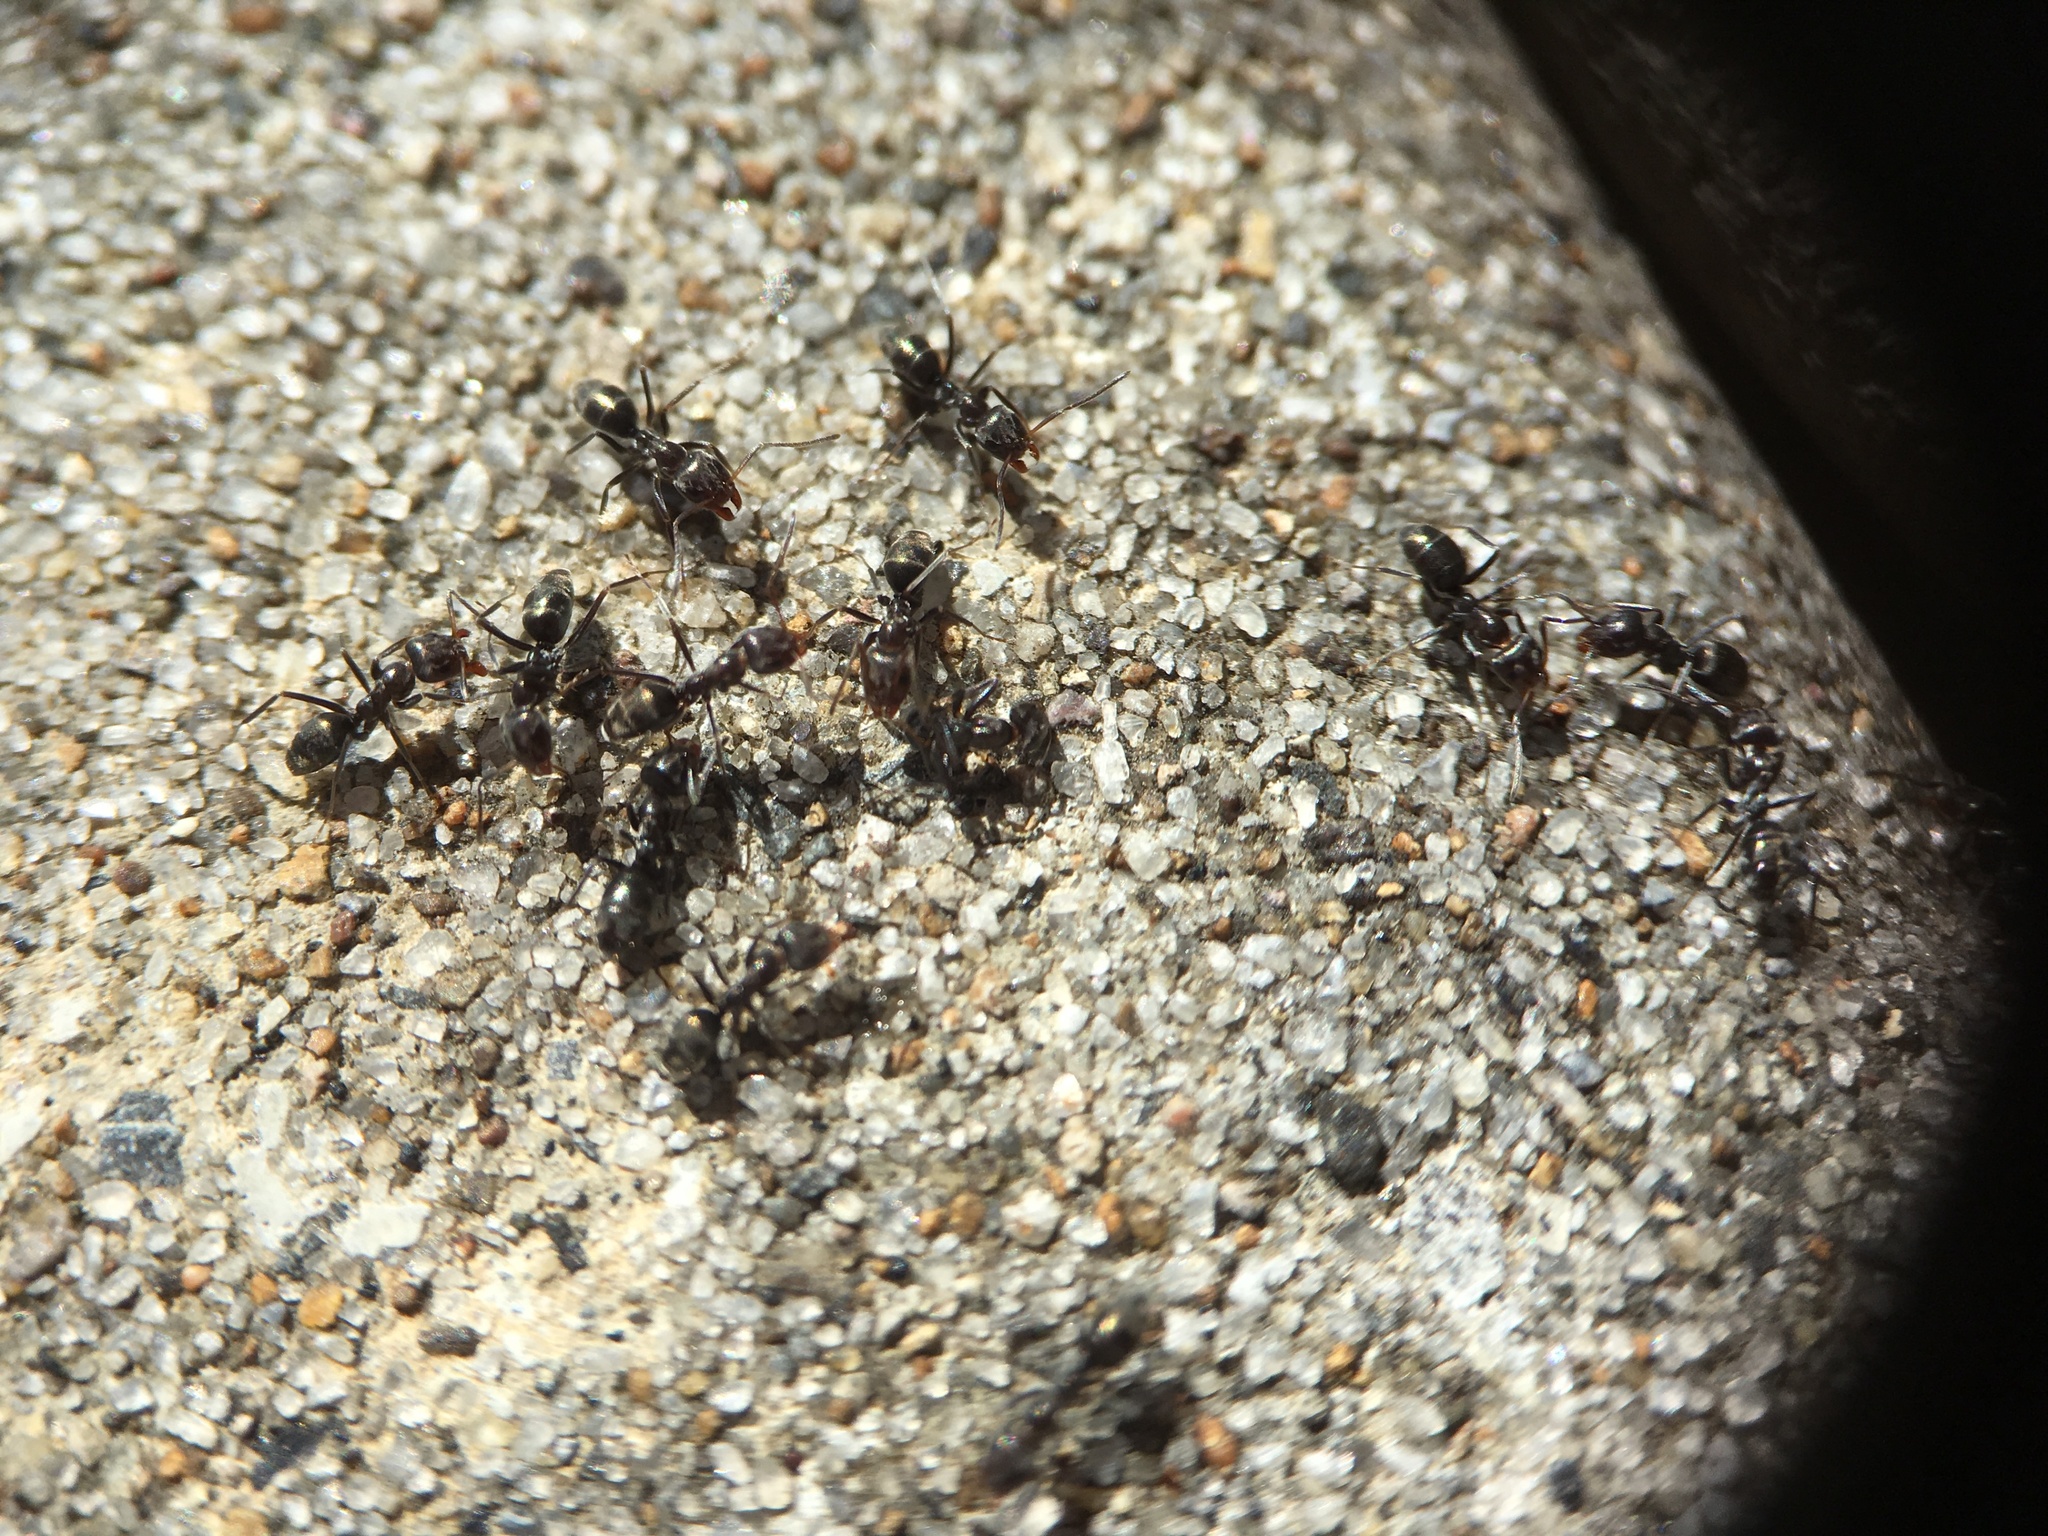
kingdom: Animalia
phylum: Arthropoda
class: Insecta
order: Hymenoptera
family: Formicidae
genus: Iridomyrmex
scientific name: Iridomyrmex suchieri
